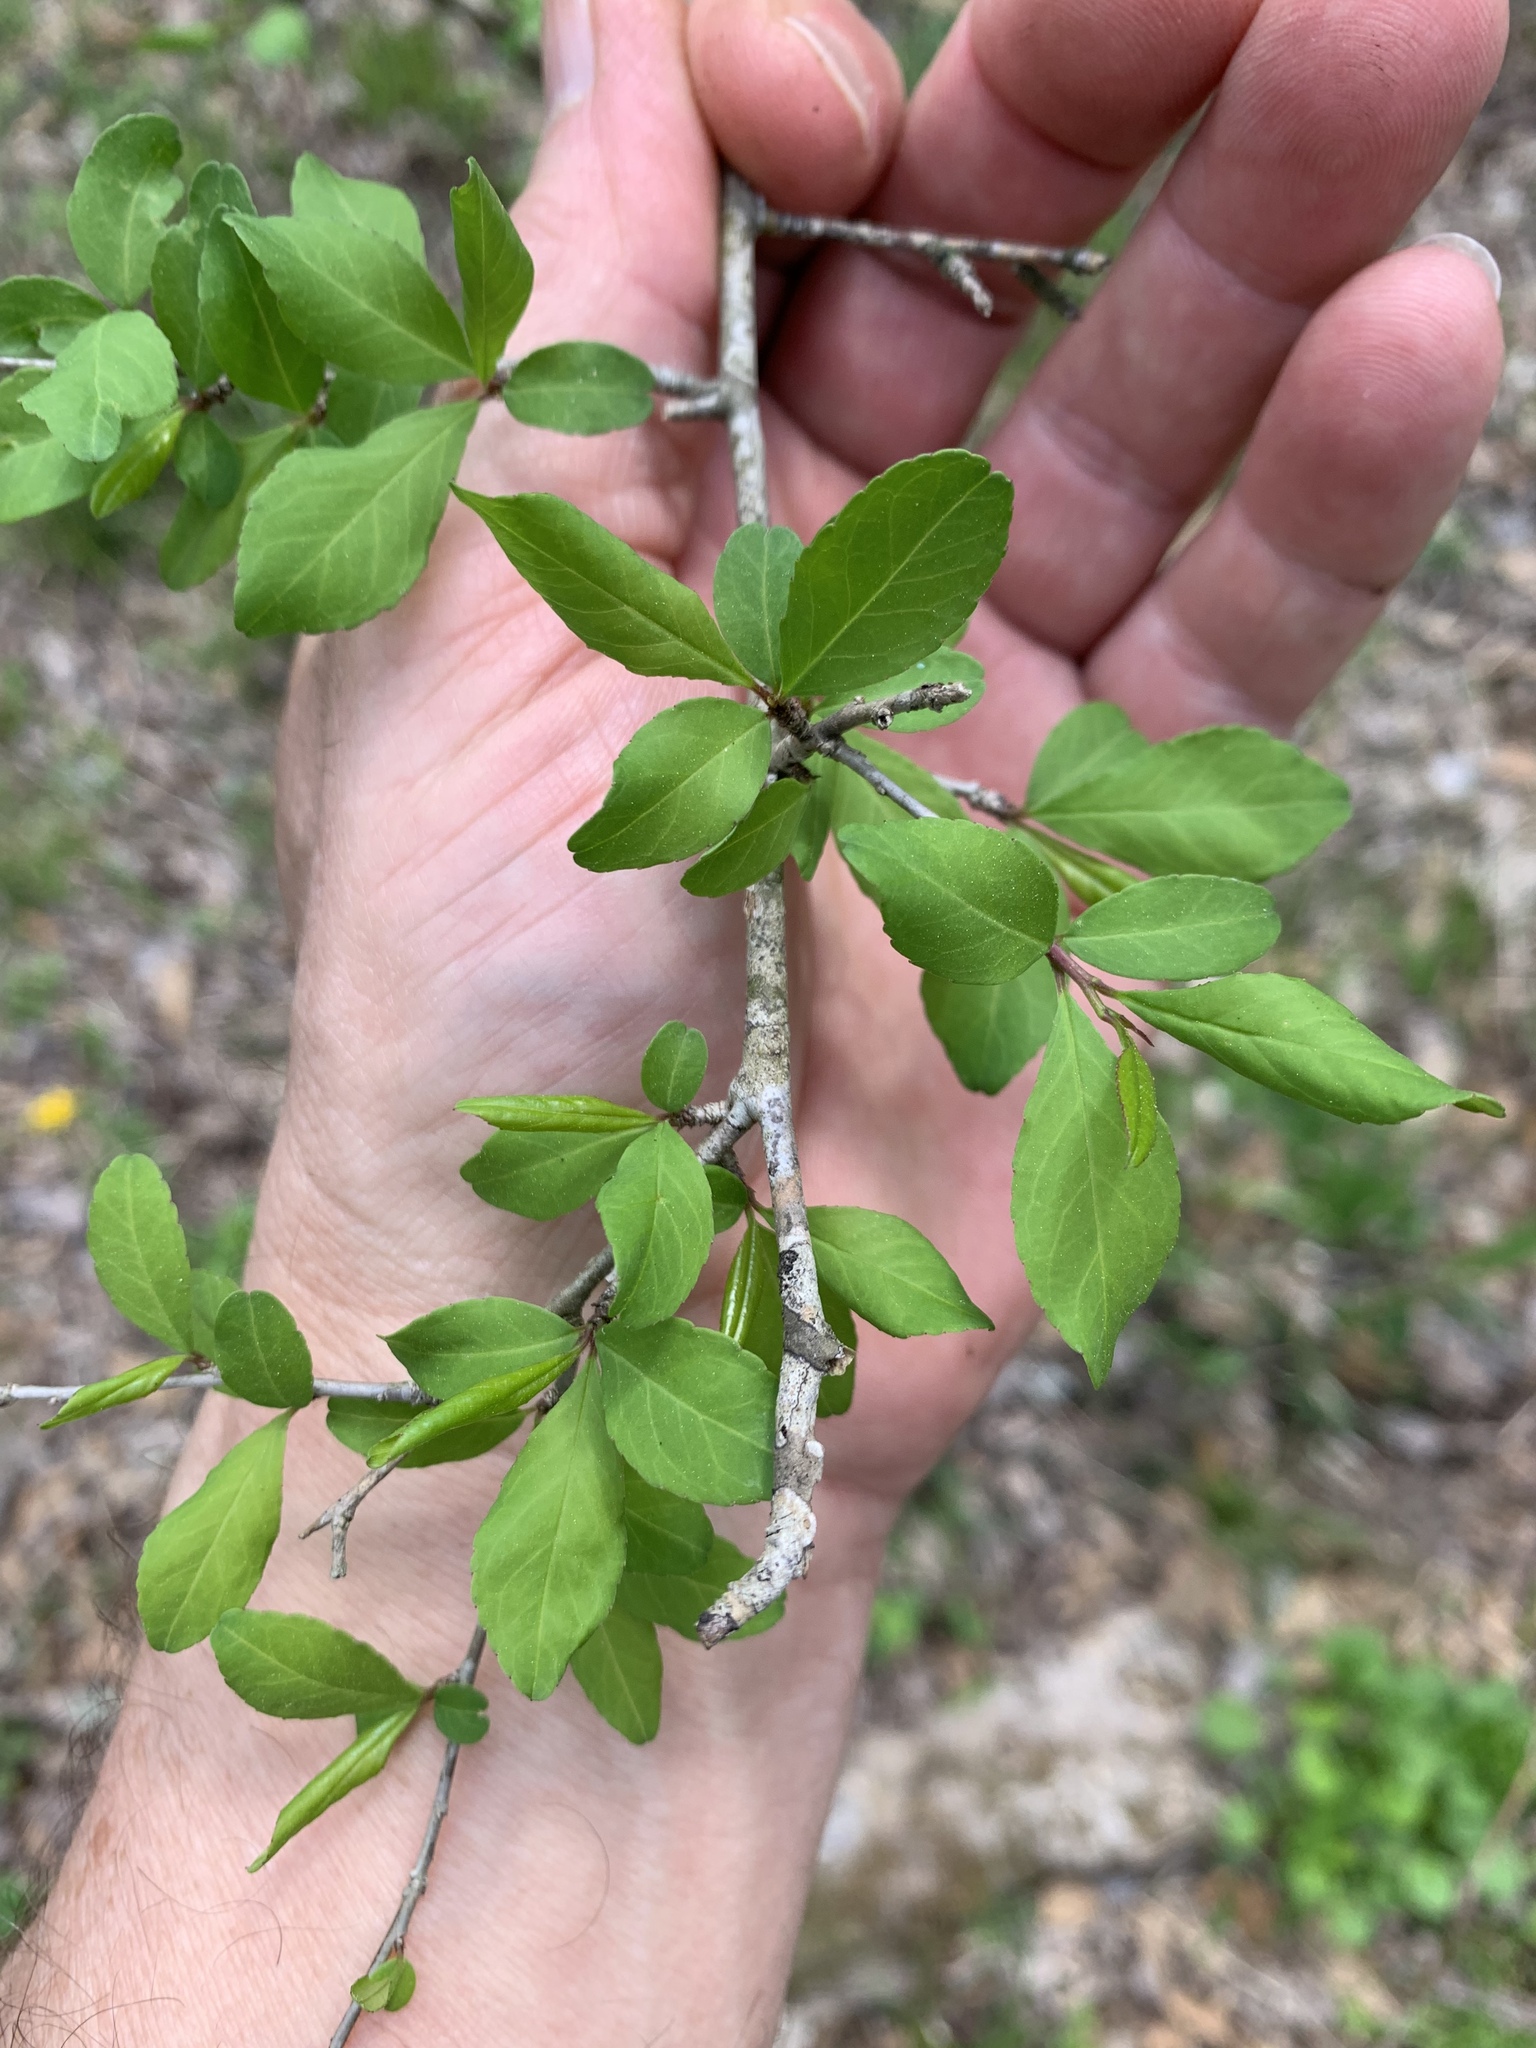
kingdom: Plantae
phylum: Tracheophyta
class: Magnoliopsida
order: Aquifoliales
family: Aquifoliaceae
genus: Ilex
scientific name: Ilex decidua
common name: Possum-haw
